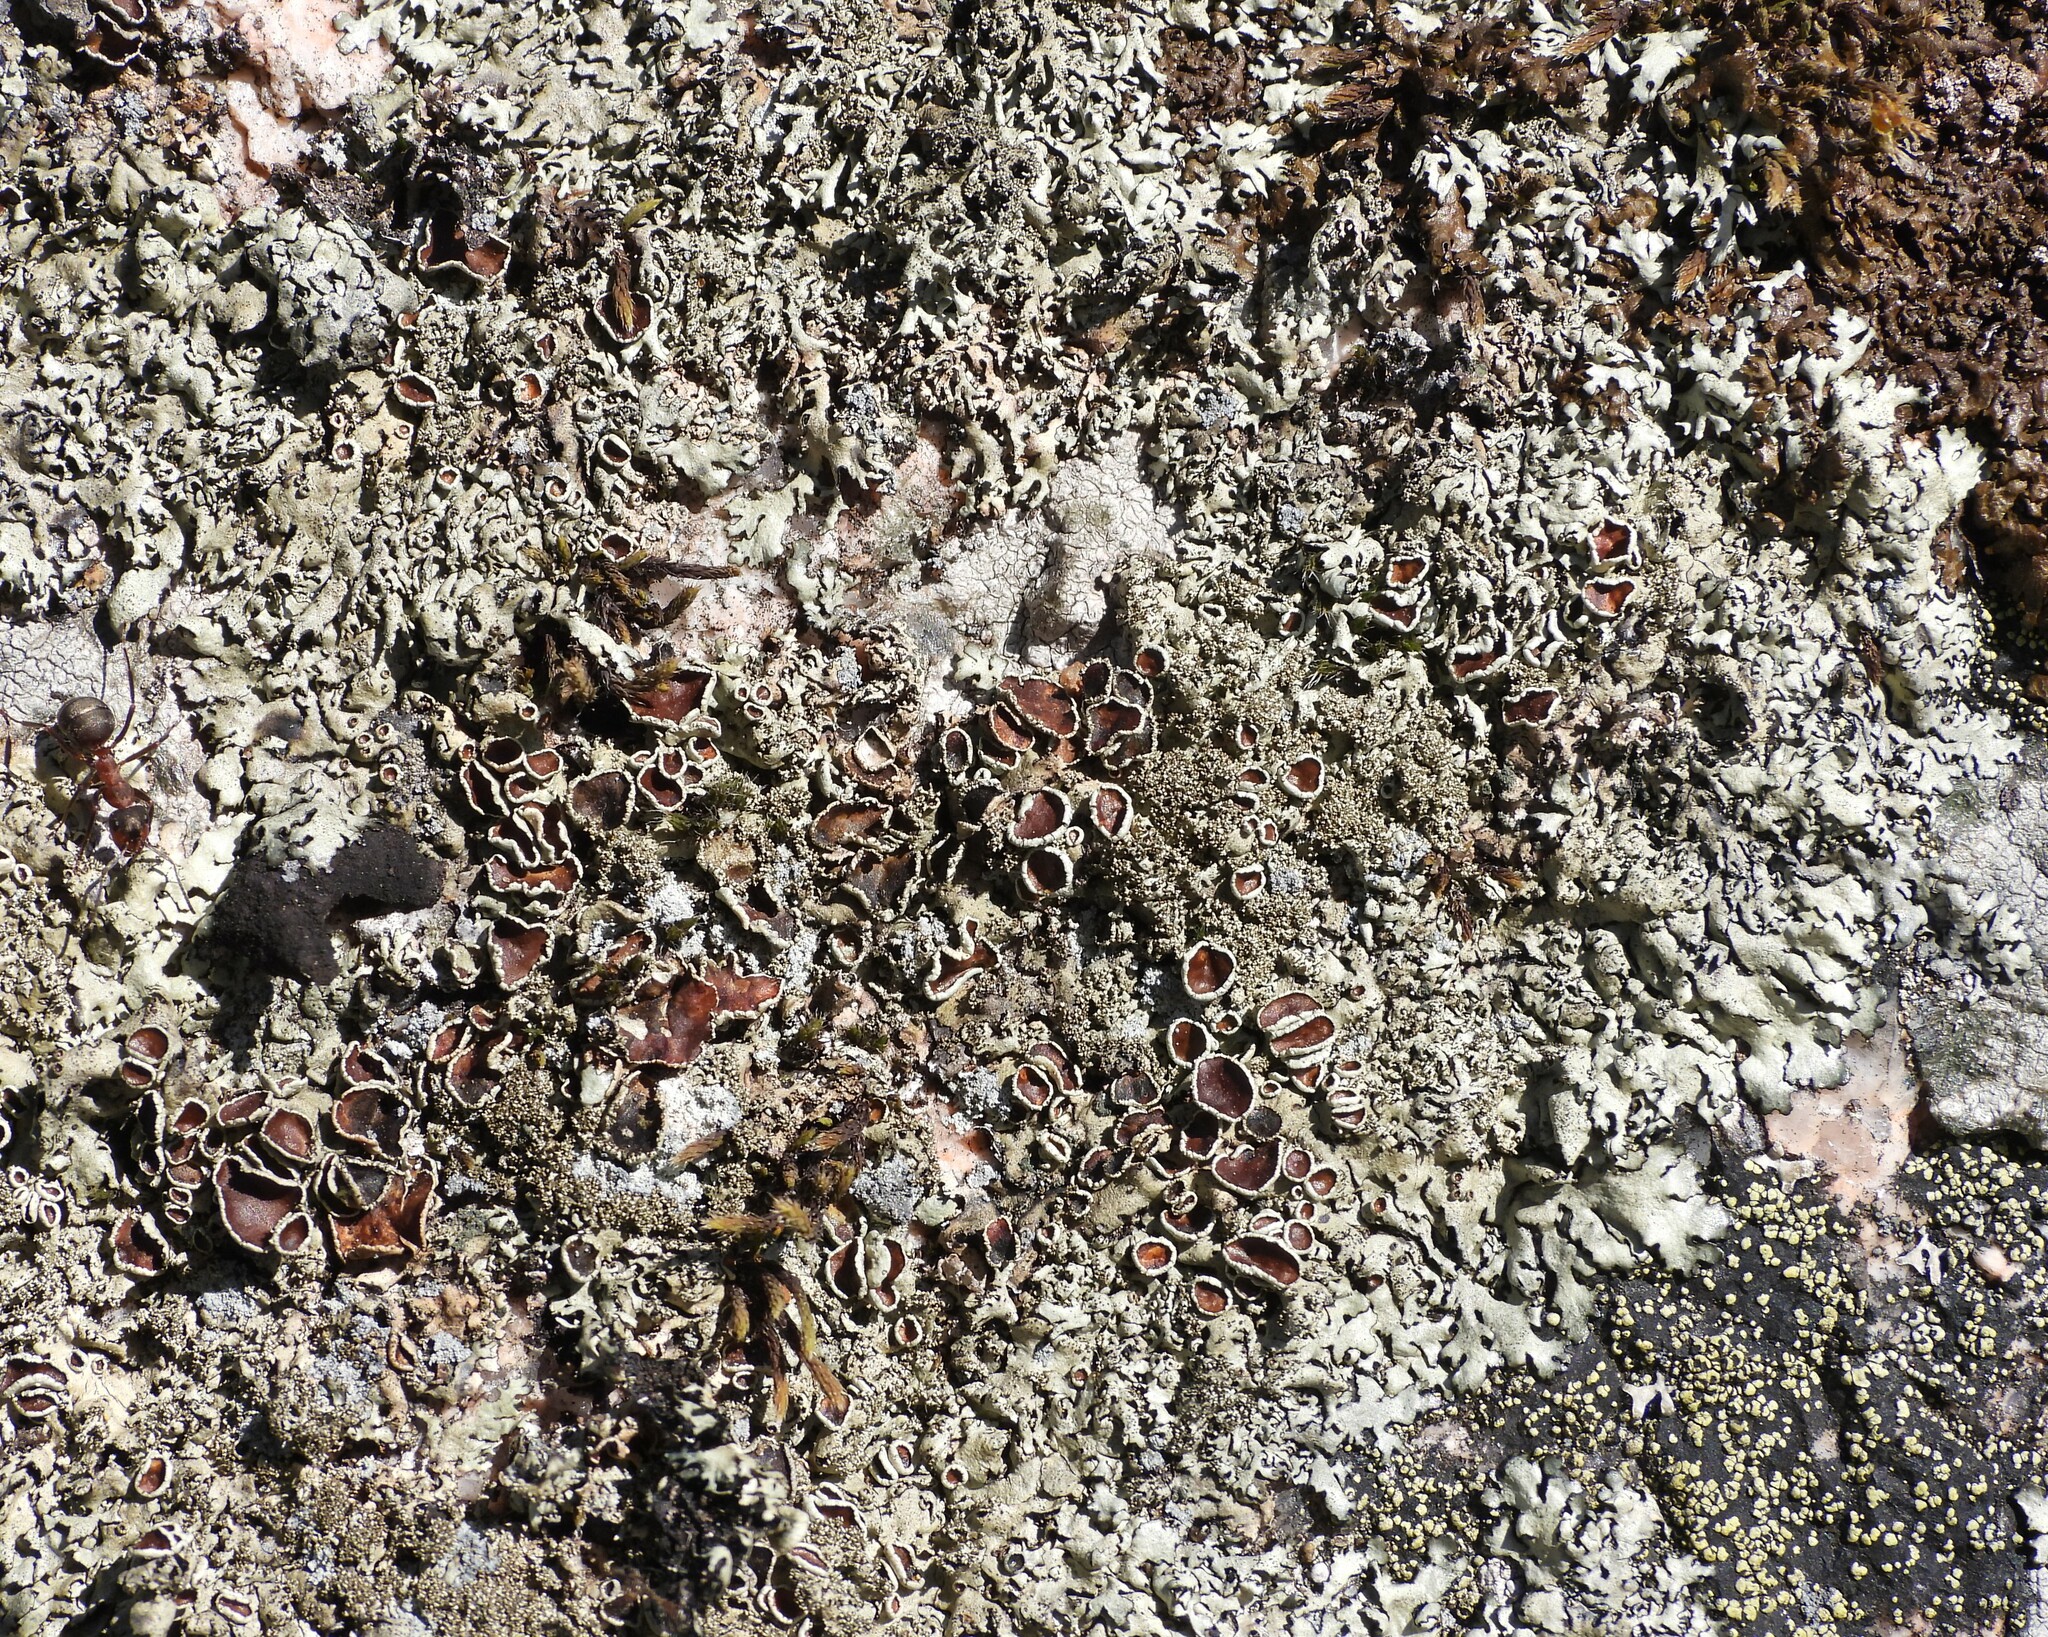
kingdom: Fungi
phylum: Ascomycota
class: Lecanoromycetes
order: Lecanorales
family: Parmeliaceae
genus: Xanthoparmelia
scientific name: Xanthoparmelia conspersa
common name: Peppered rock shield
